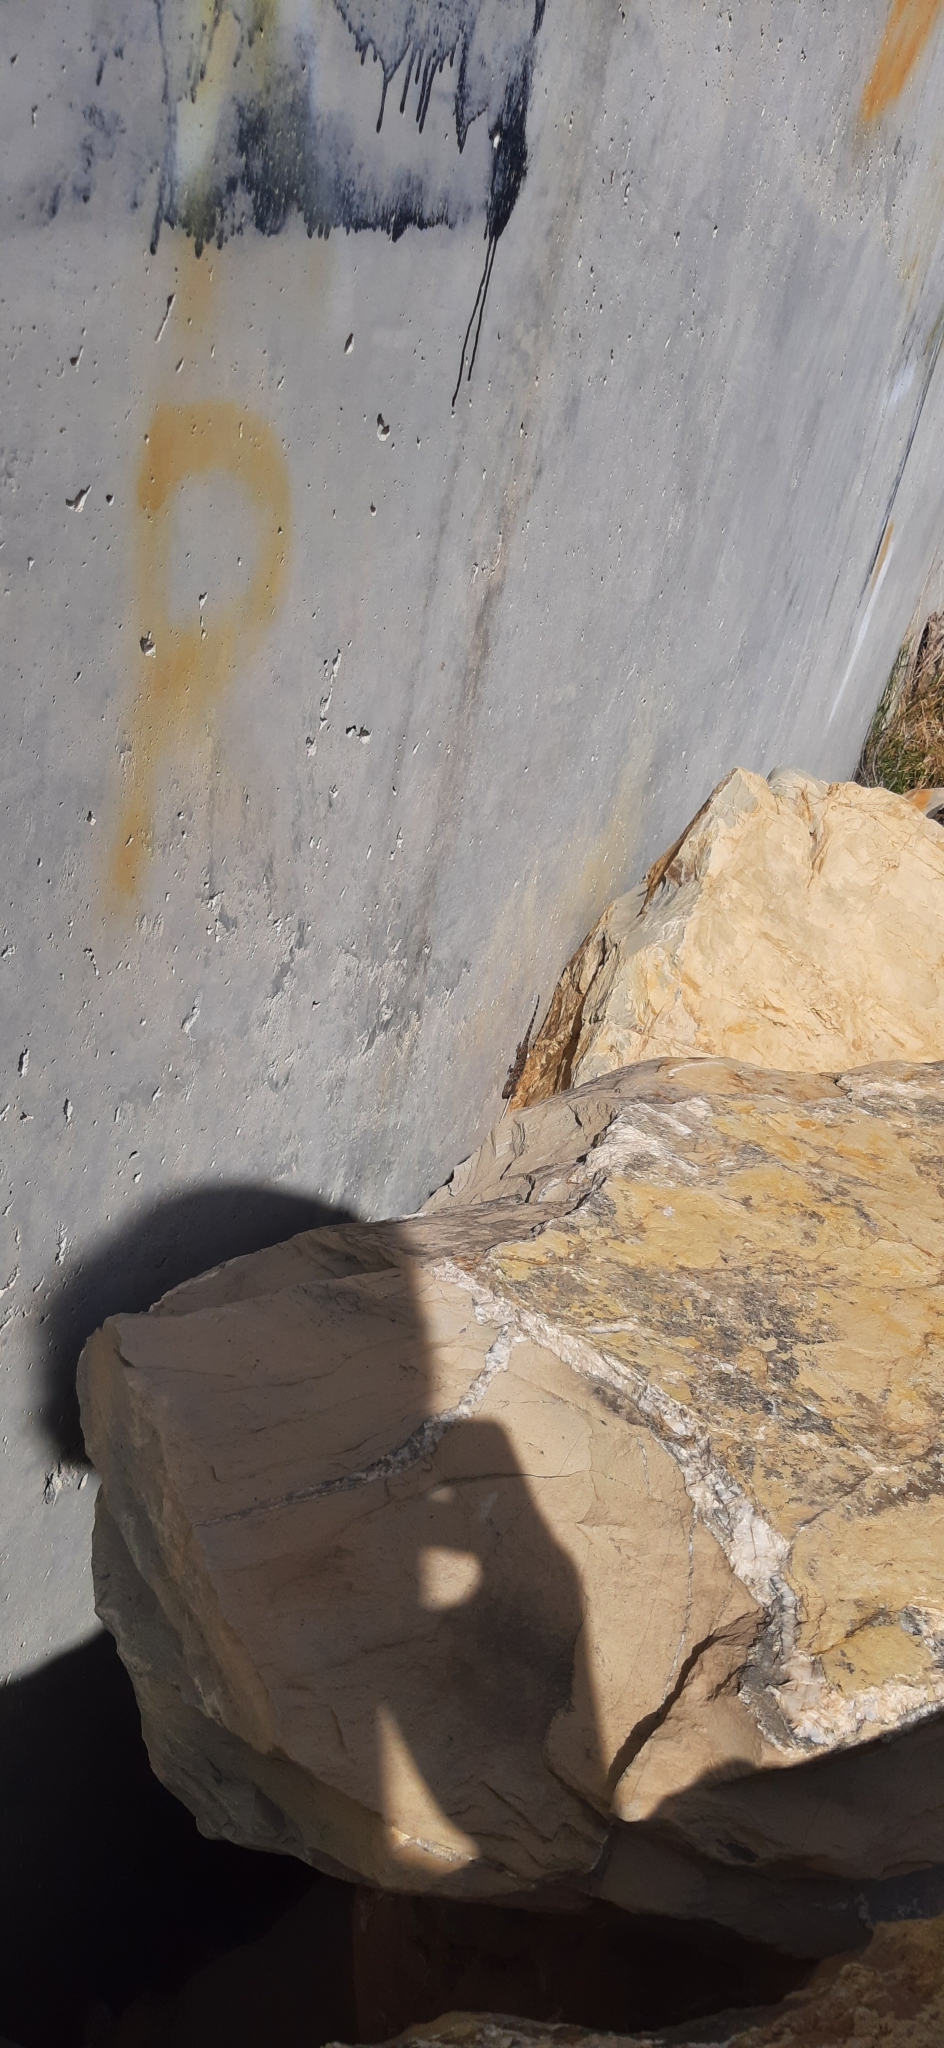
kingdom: Animalia
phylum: Chordata
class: Squamata
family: Phyllodactylidae
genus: Tarentola
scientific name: Tarentola mauritanica
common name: Moorish gecko
